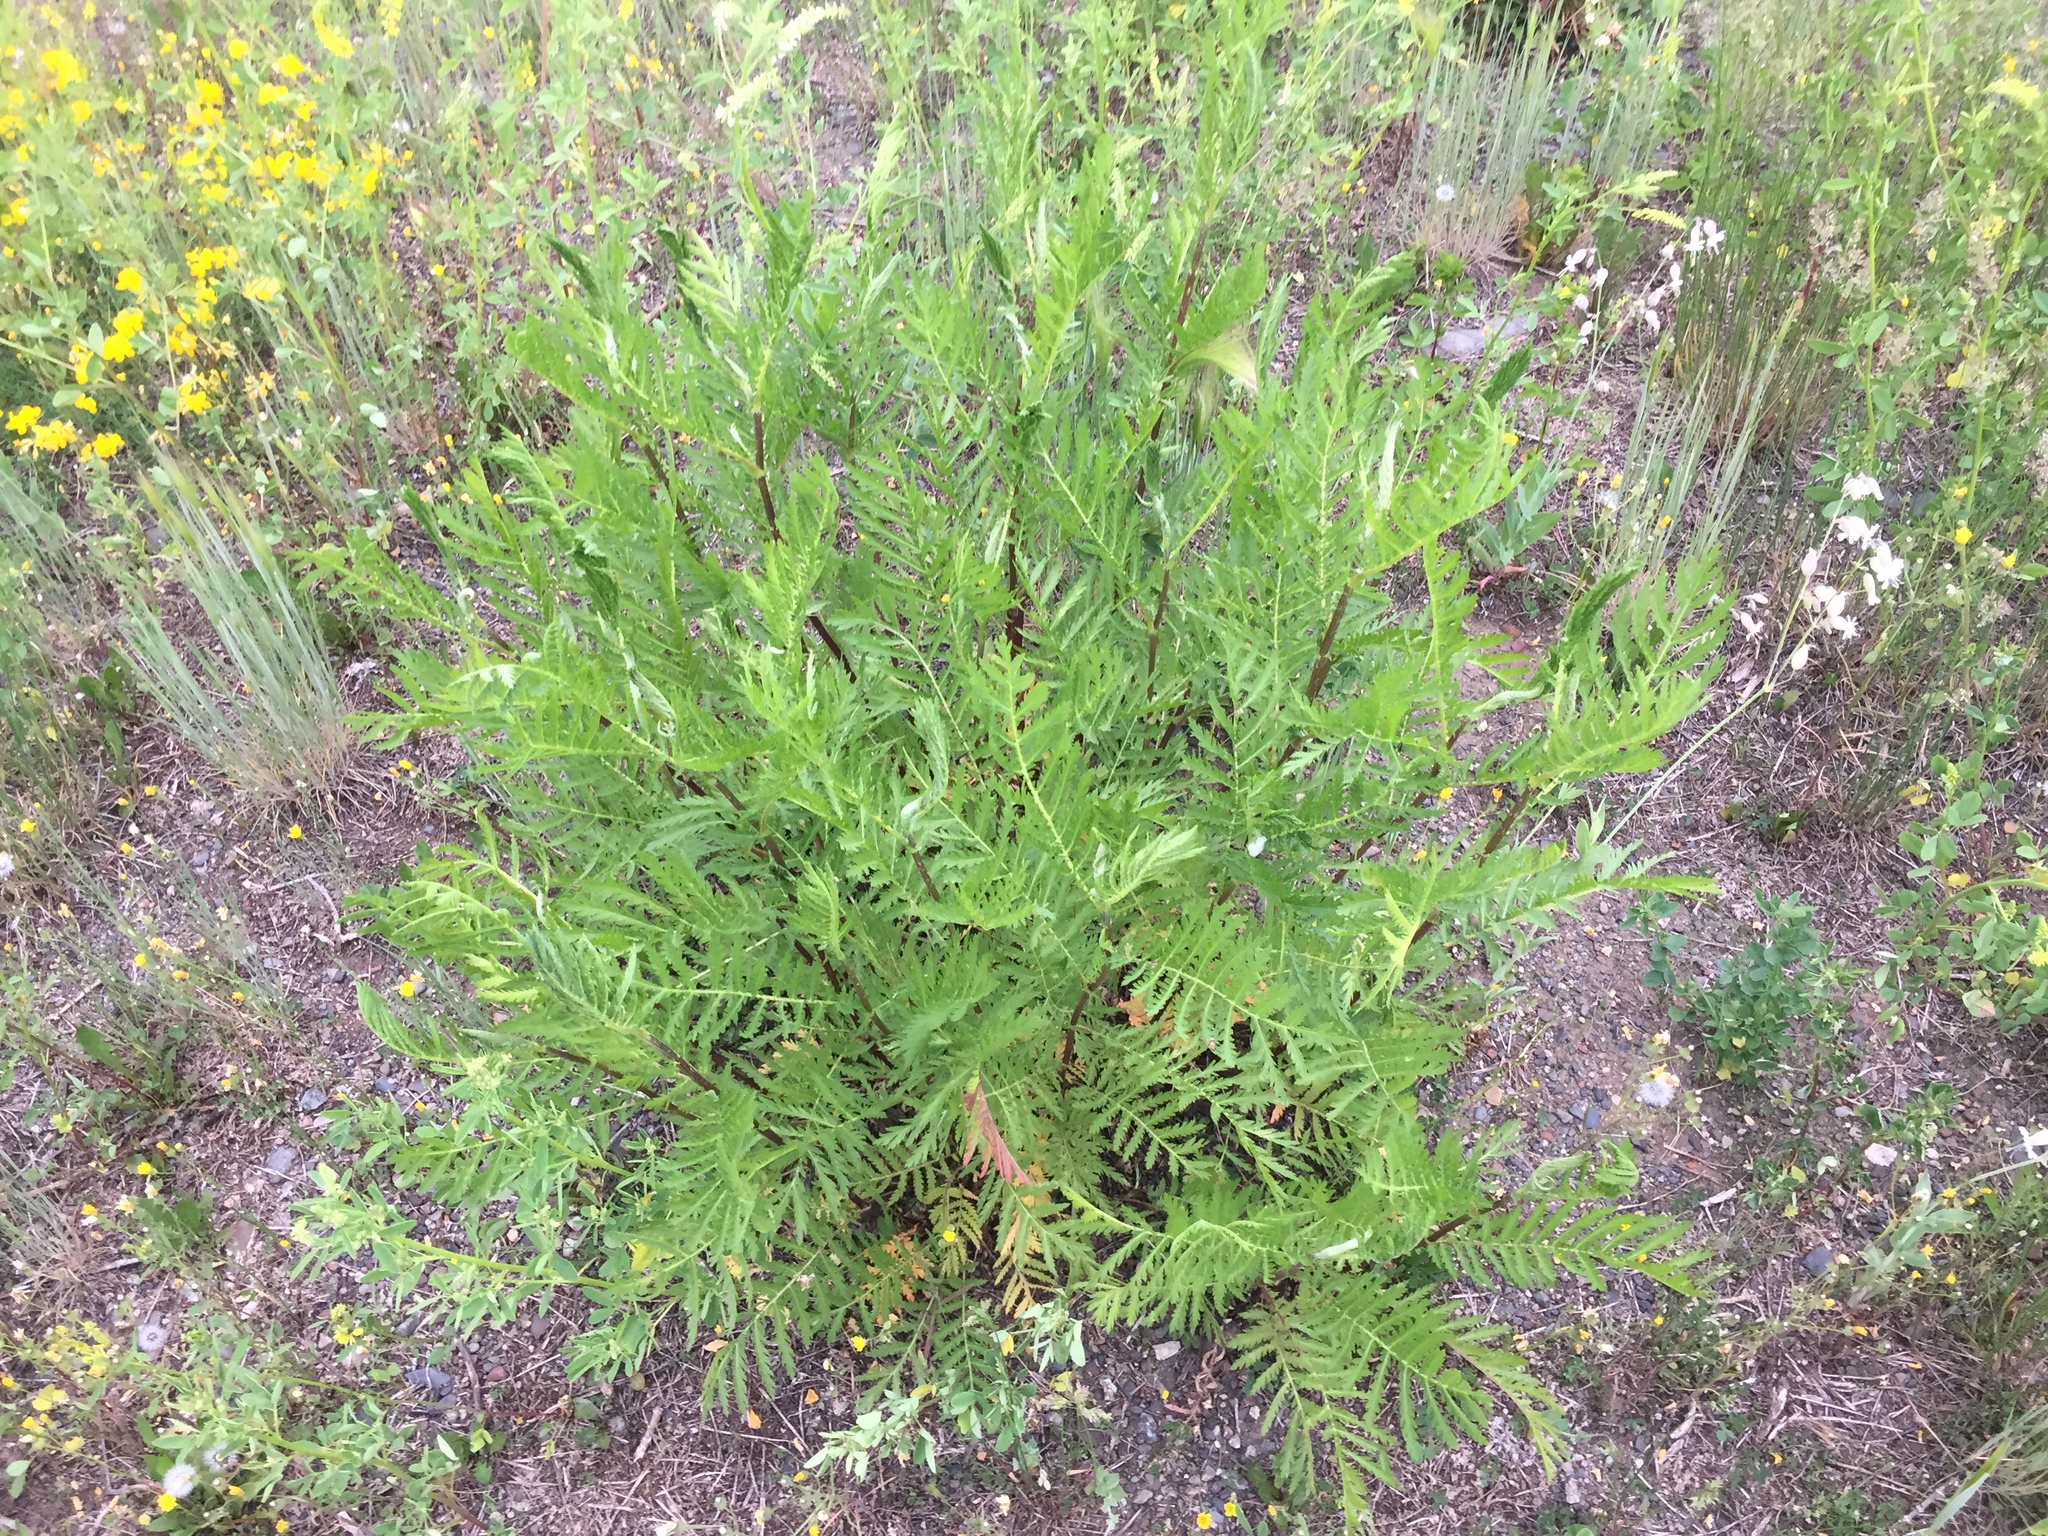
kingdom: Plantae
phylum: Tracheophyta
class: Magnoliopsida
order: Asterales
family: Asteraceae
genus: Tanacetum
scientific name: Tanacetum vulgare
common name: Common tansy
